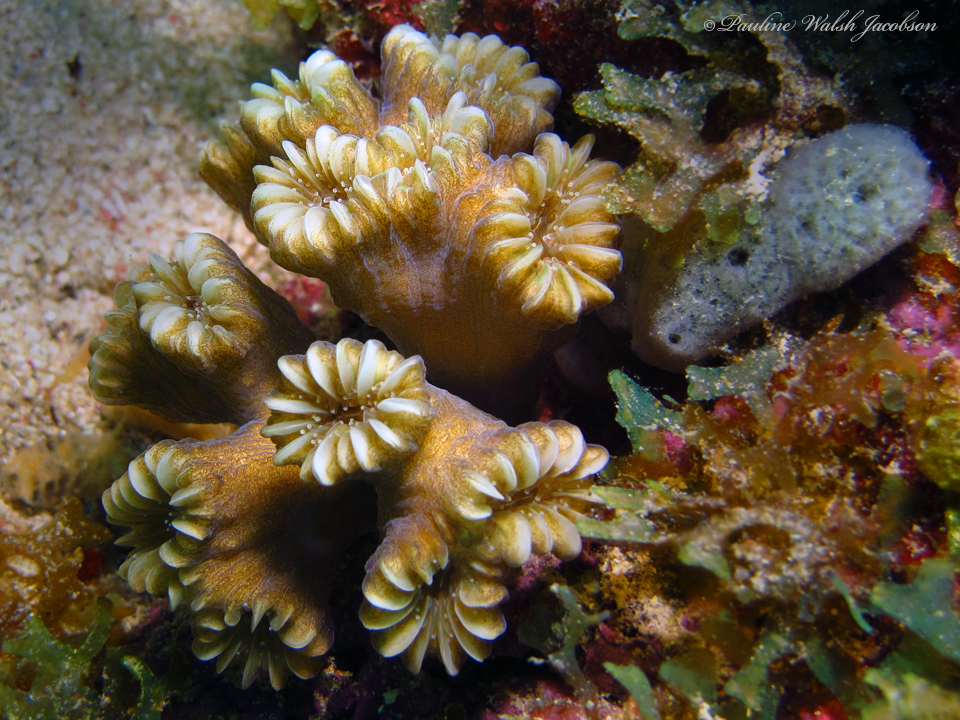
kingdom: Animalia
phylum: Cnidaria
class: Anthozoa
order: Scleractinia
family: Meandrinidae
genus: Eusmilia
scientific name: Eusmilia fastigiata
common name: Smooth flower coral
